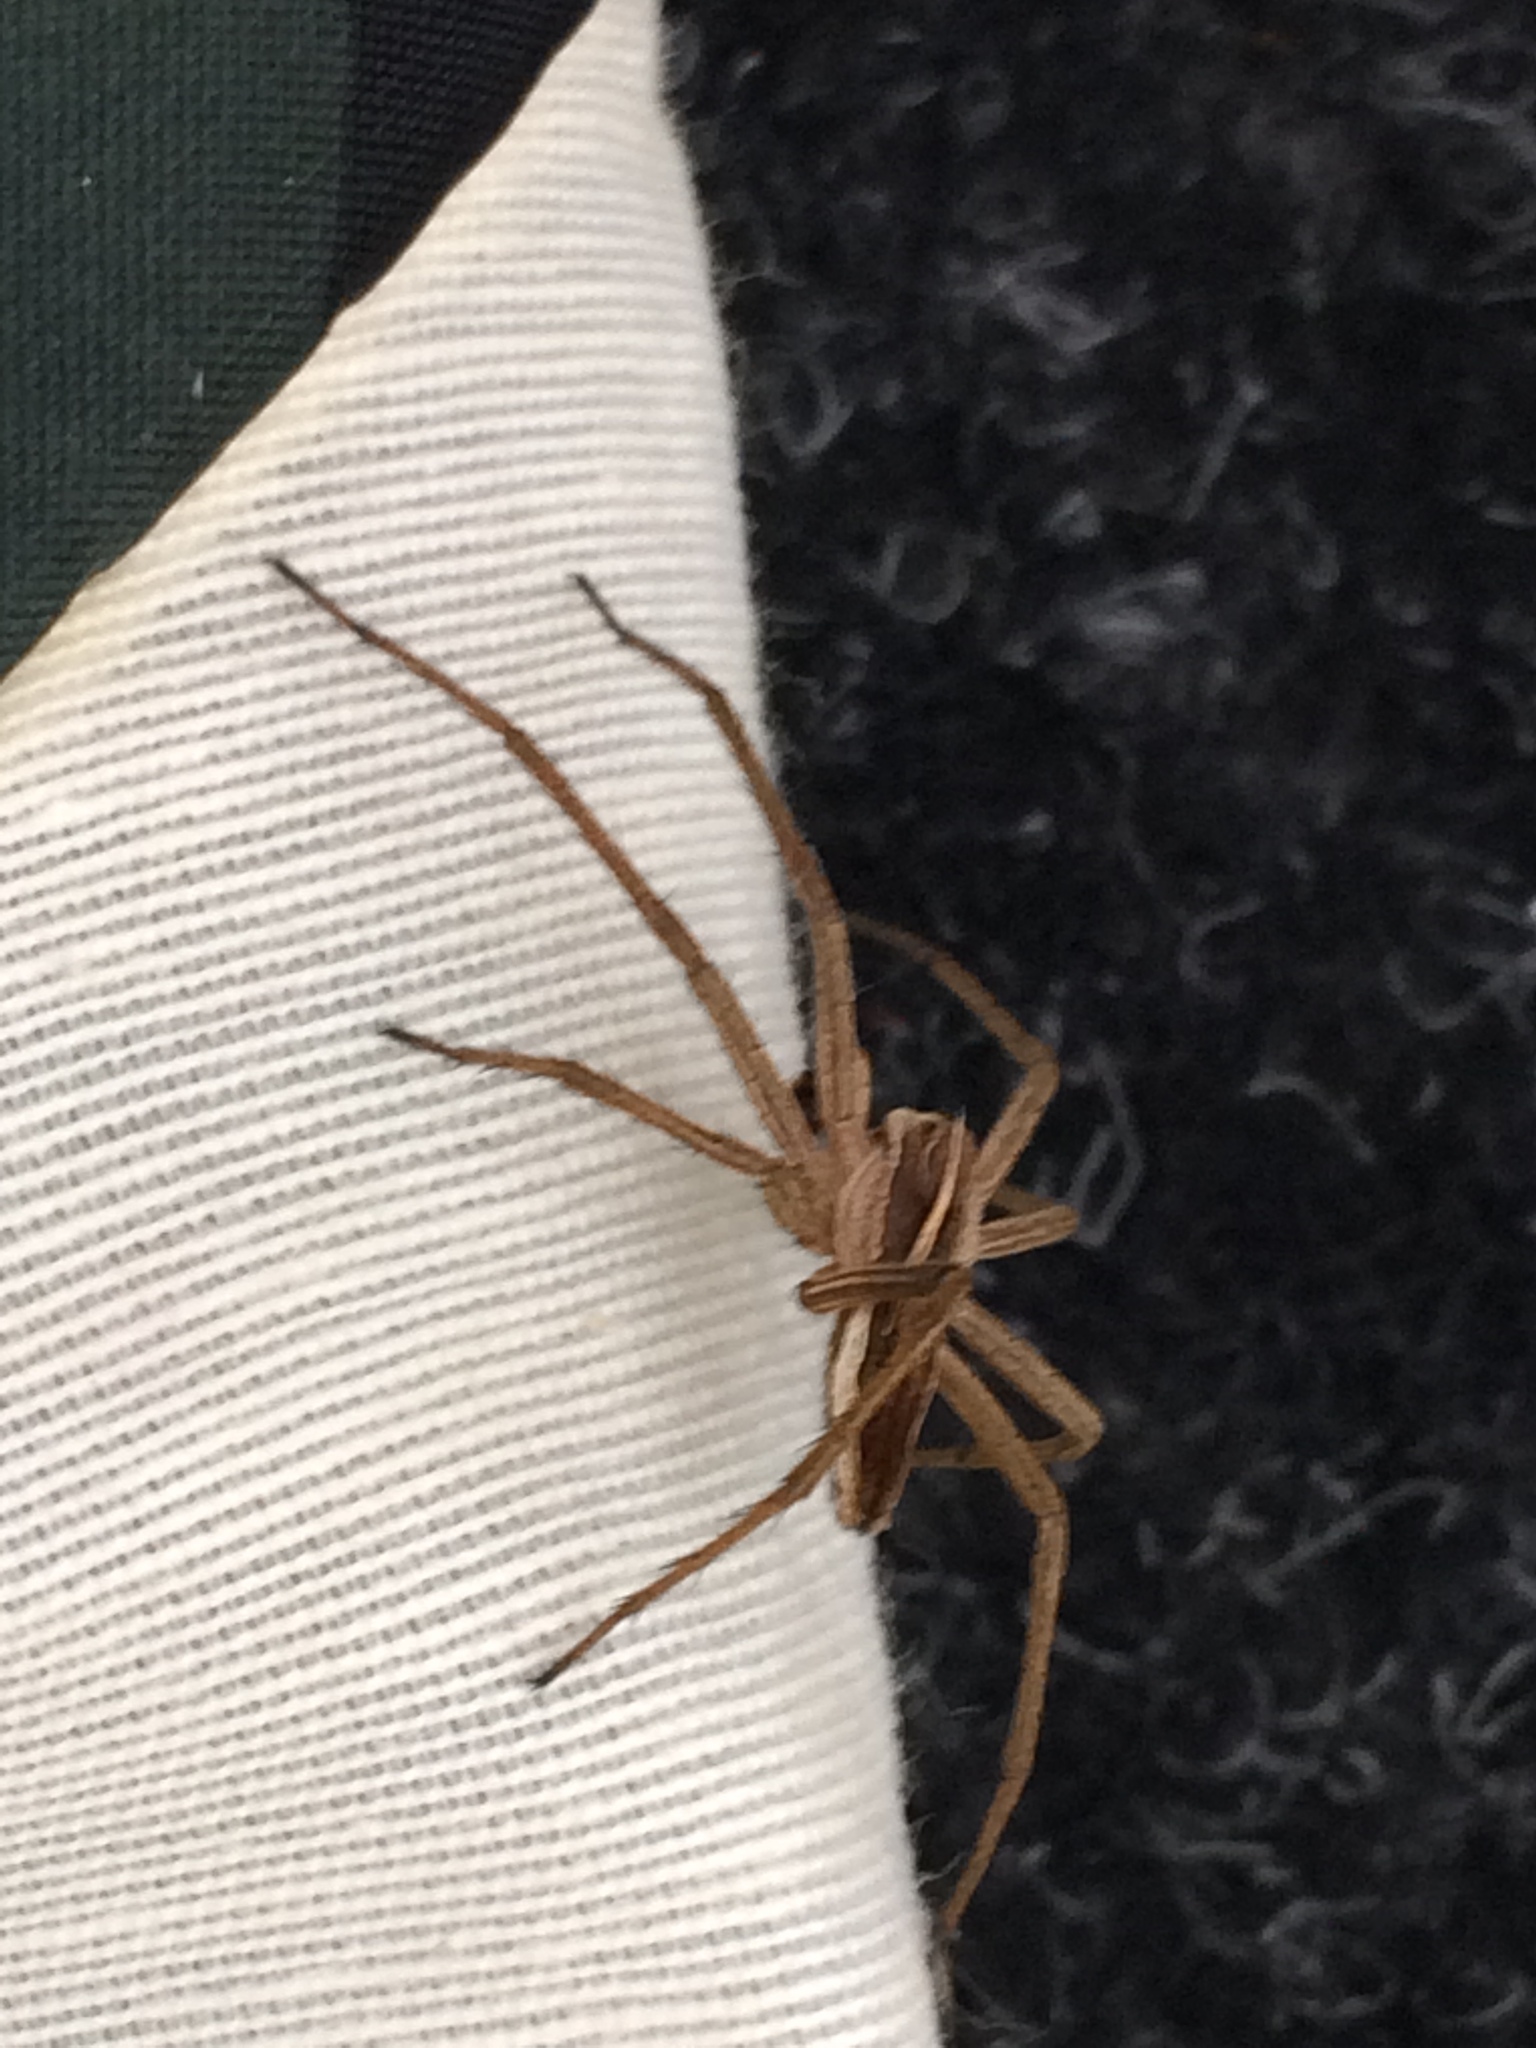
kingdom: Animalia
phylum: Arthropoda
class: Arachnida
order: Araneae
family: Pisauridae
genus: Pisaura
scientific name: Pisaura mirabilis
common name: Tent spider
